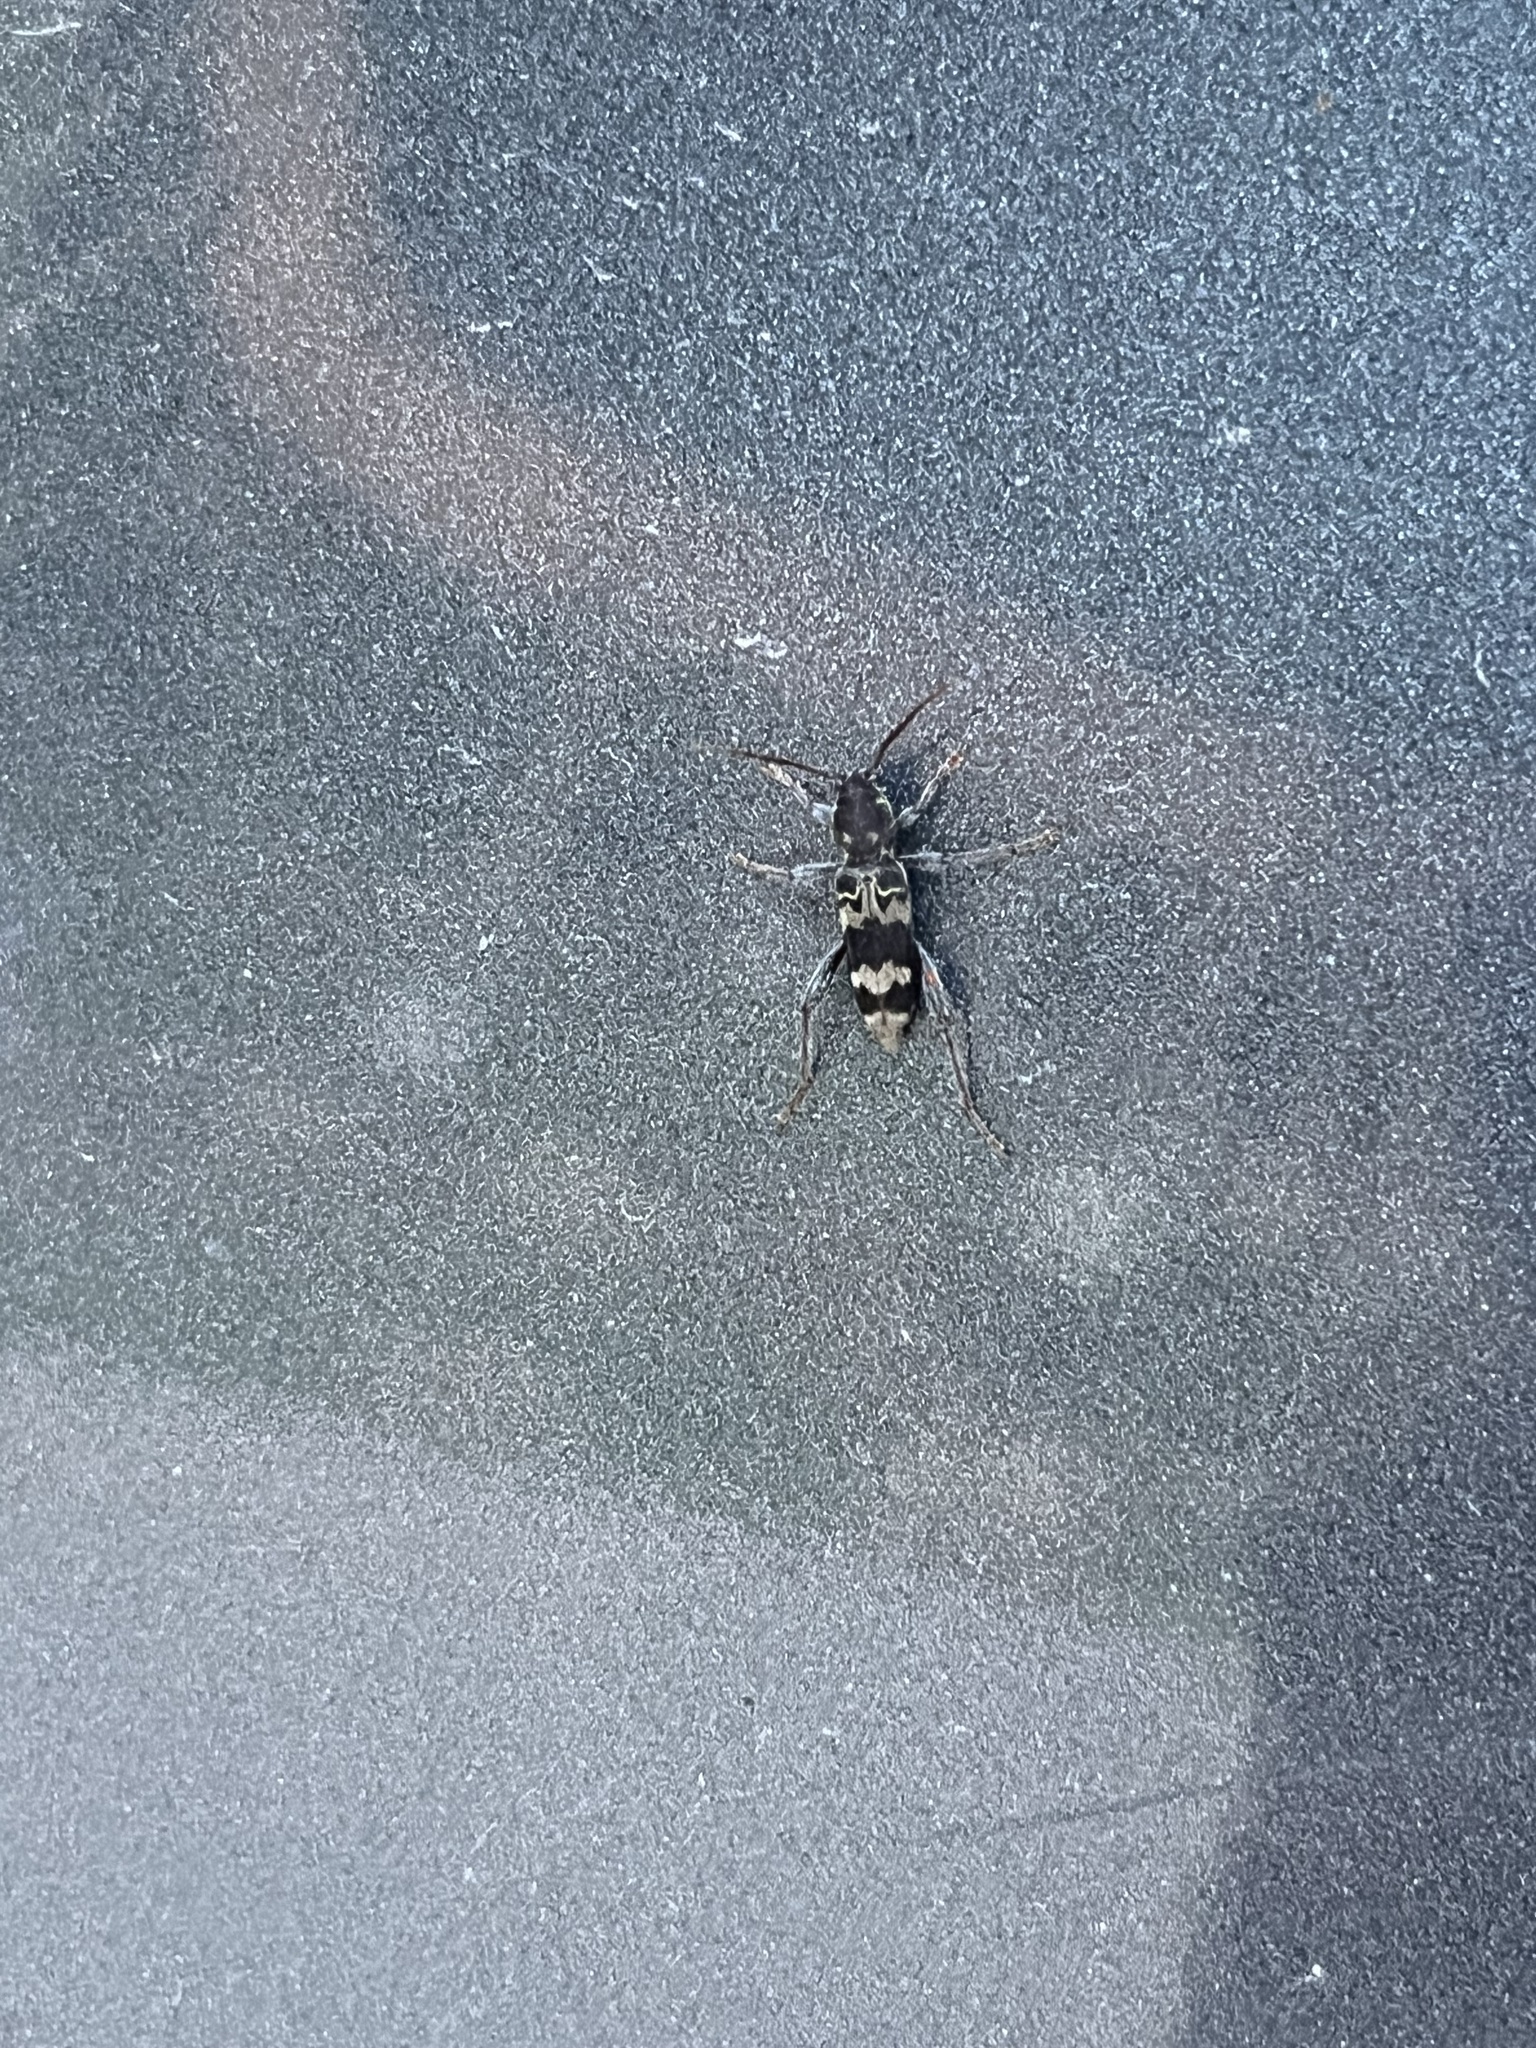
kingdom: Animalia
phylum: Arthropoda
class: Insecta
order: Coleoptera
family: Cerambycidae
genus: Xylotrechus
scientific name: Xylotrechus colonus
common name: Long-horned beetle
